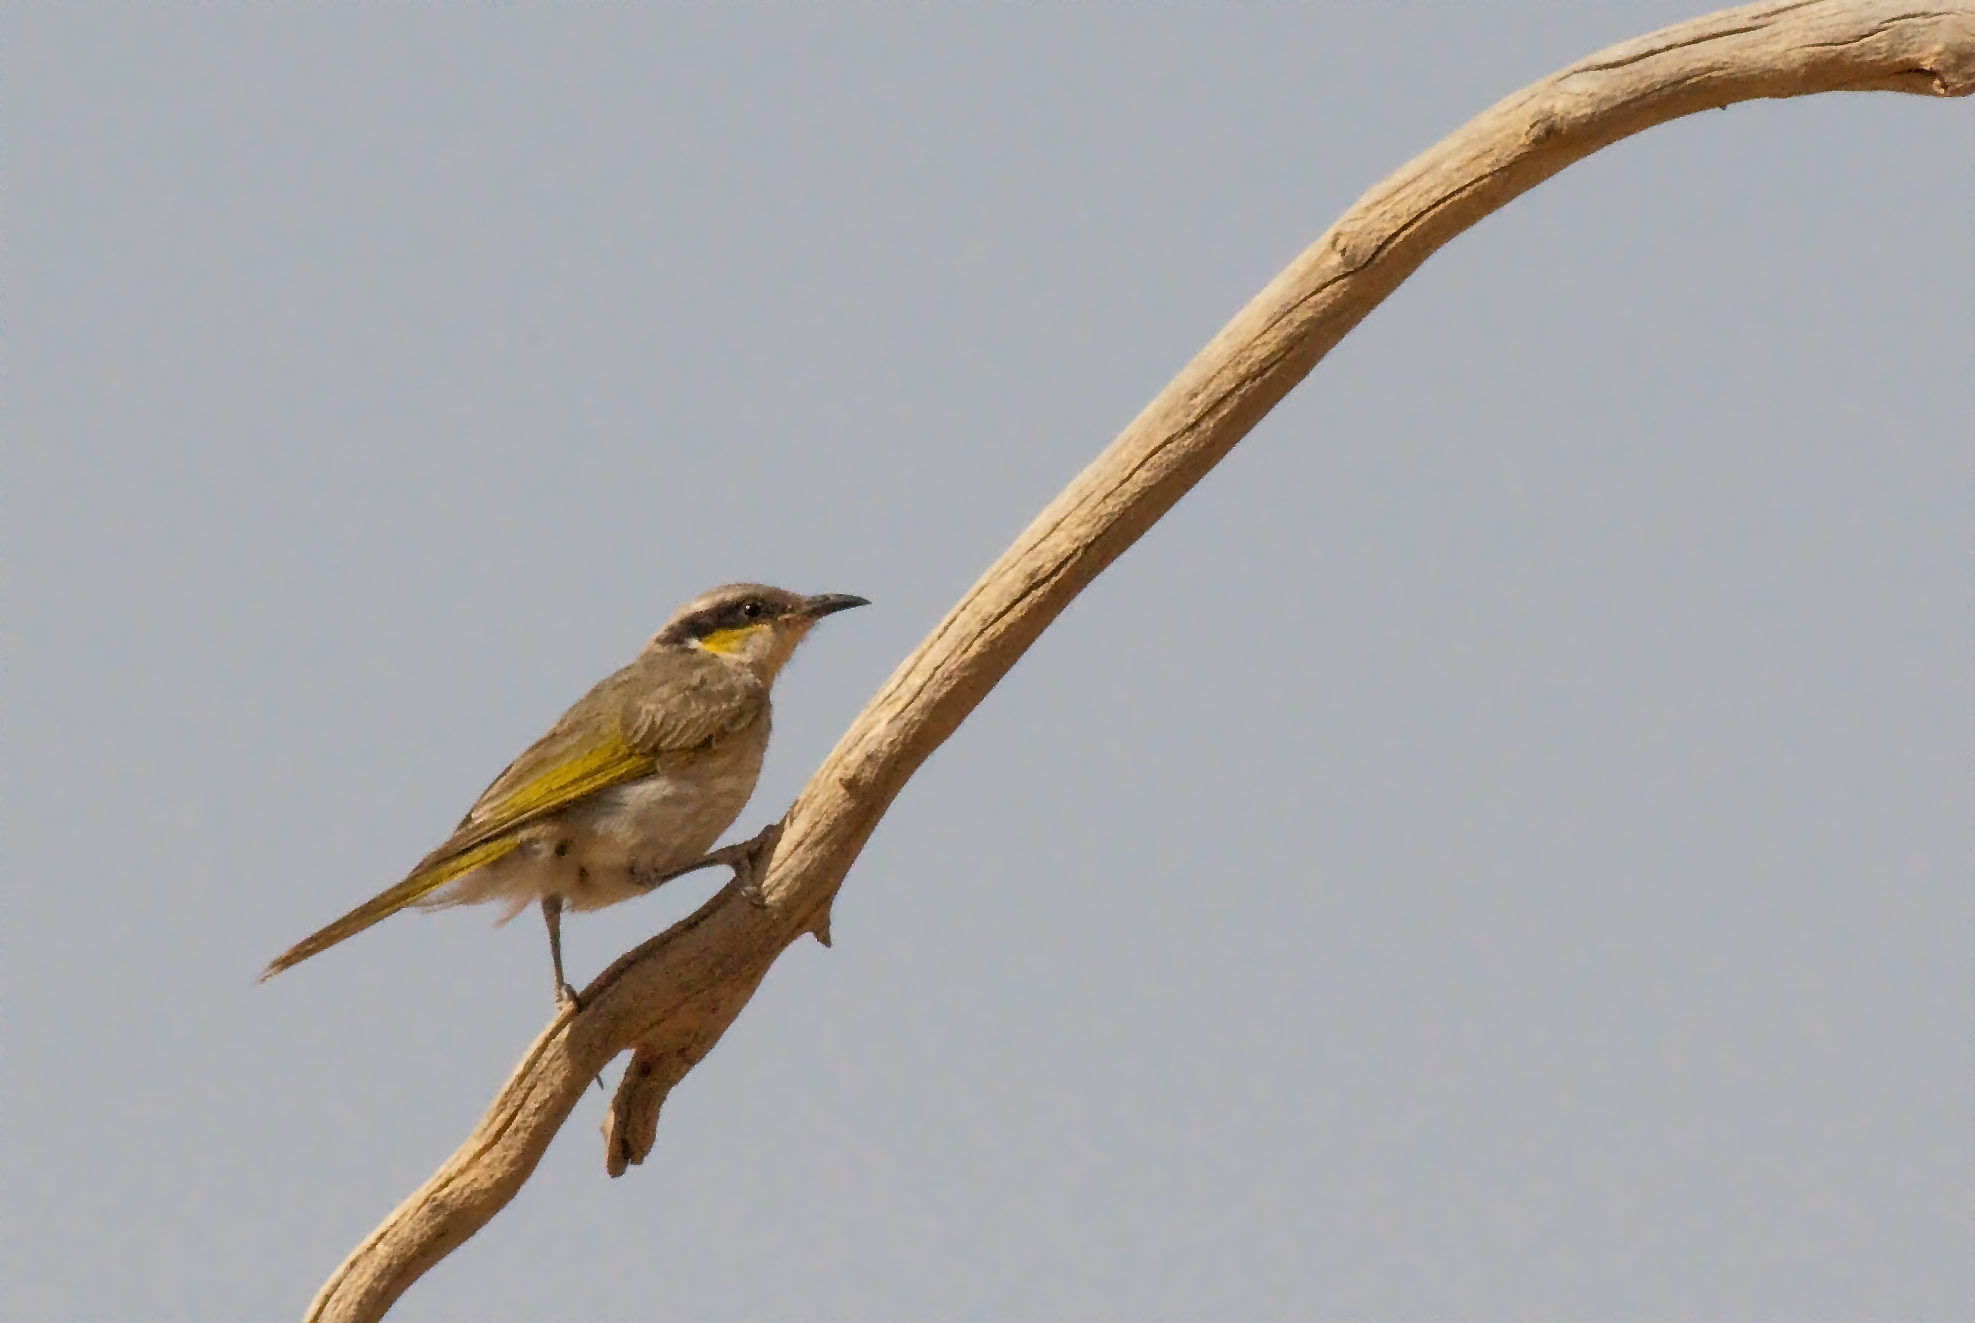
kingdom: Animalia
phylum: Chordata
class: Aves
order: Passeriformes
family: Meliphagidae
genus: Gavicalis
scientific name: Gavicalis virescens
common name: Singing honeyeater
